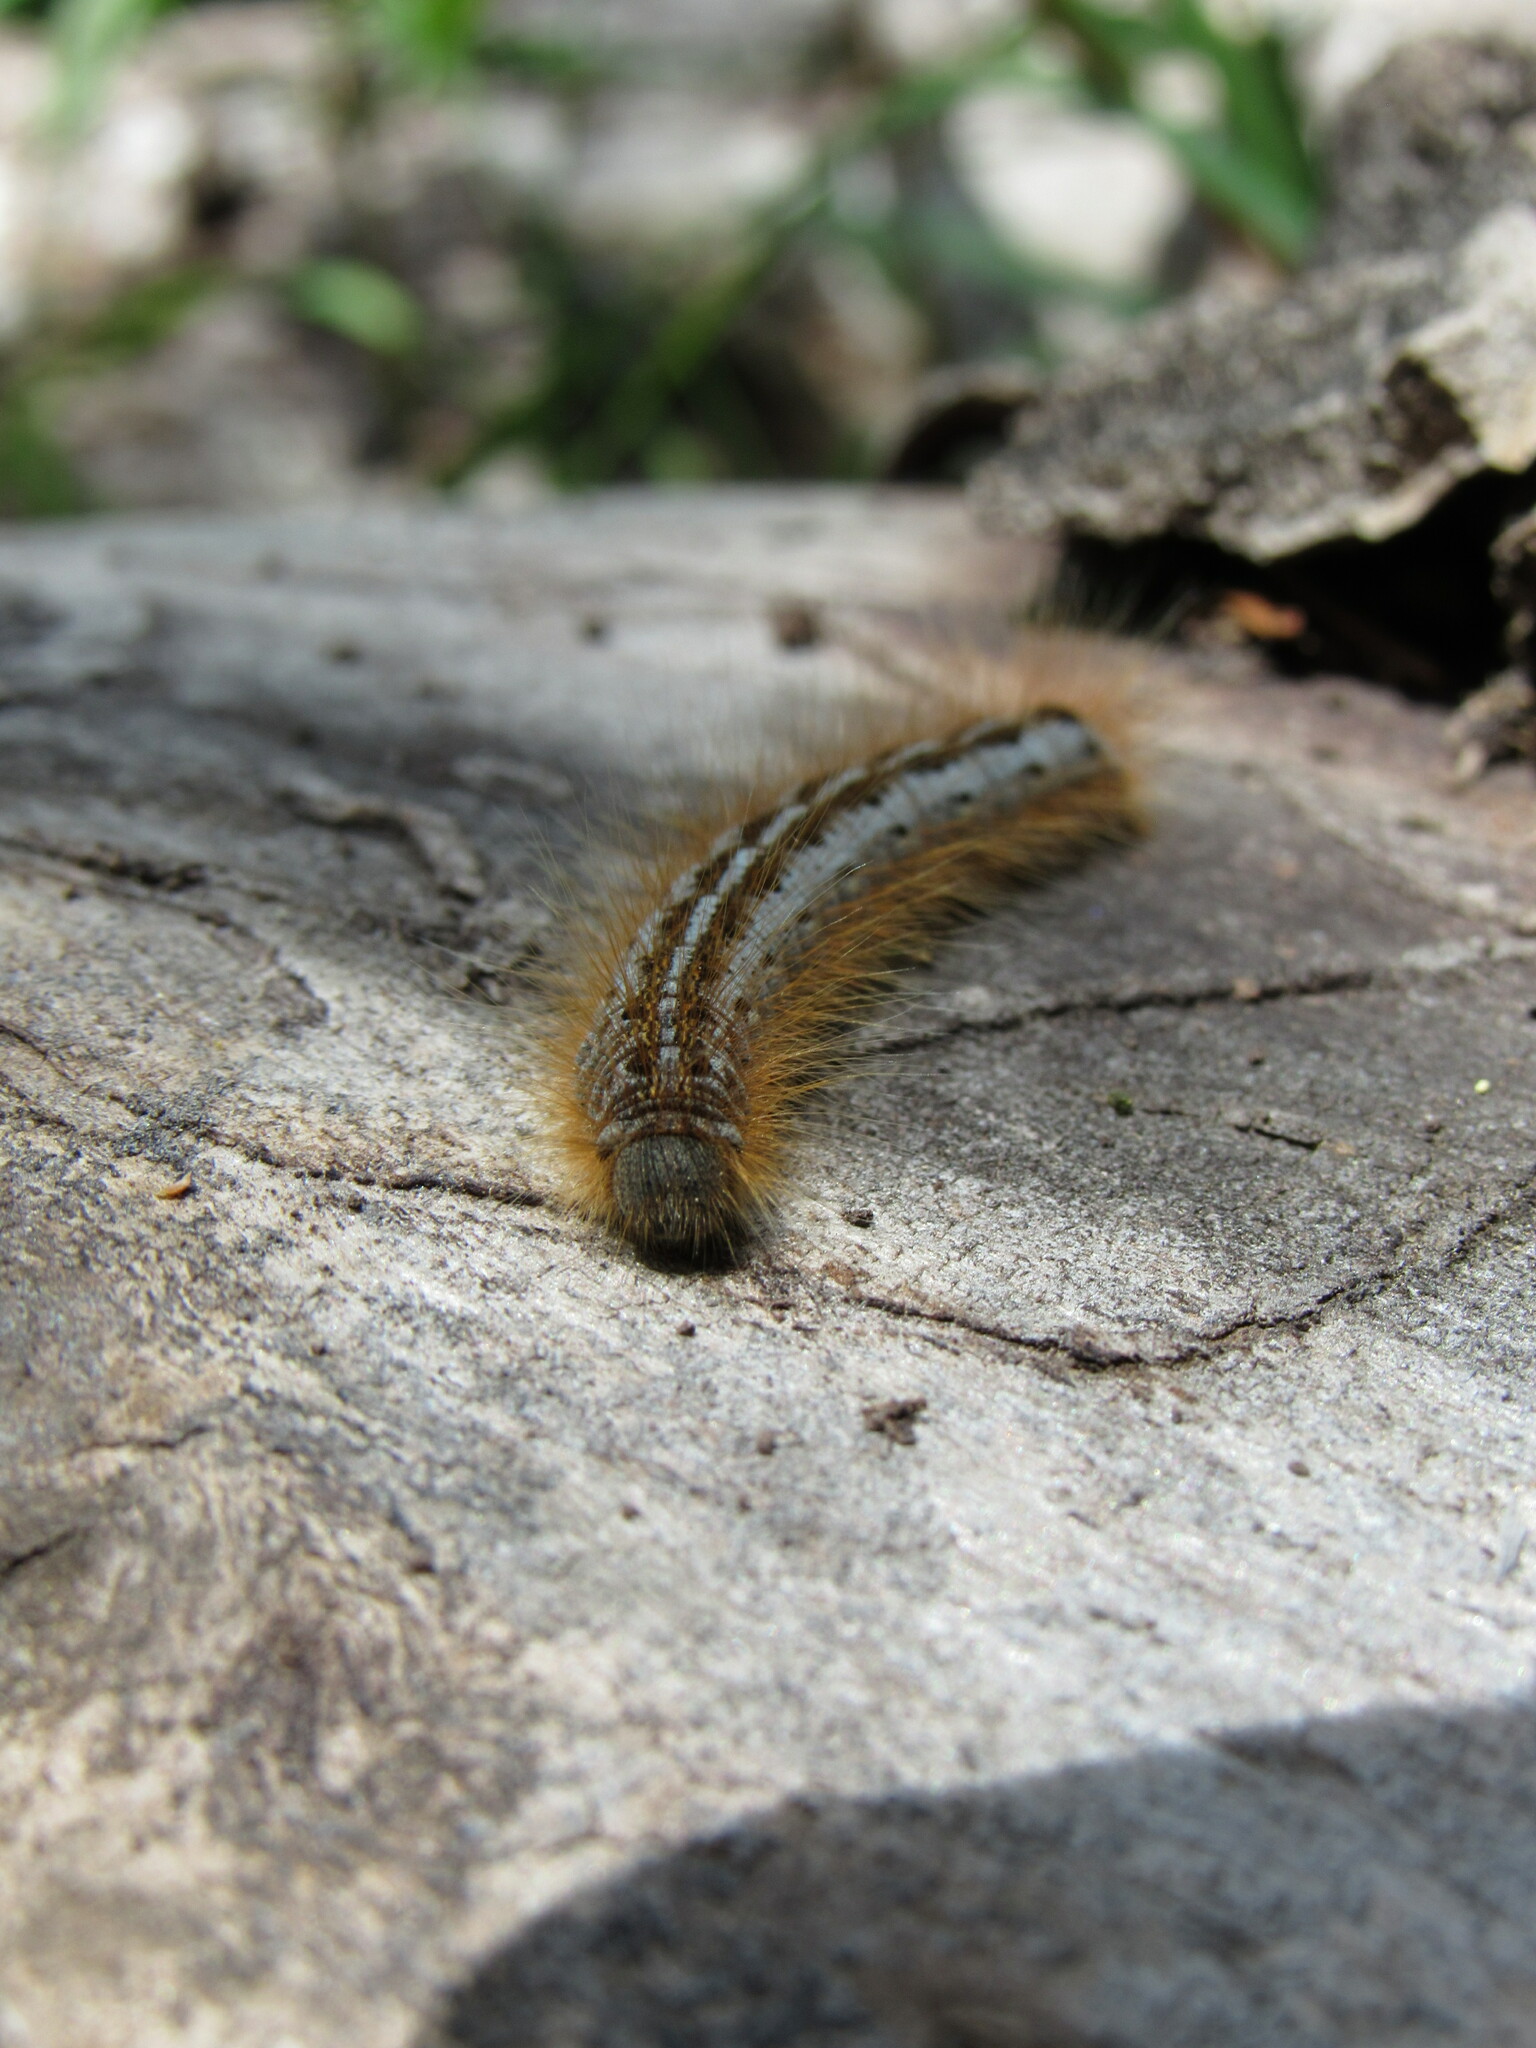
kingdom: Animalia
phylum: Arthropoda
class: Insecta
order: Lepidoptera
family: Lasiocampidae
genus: Malacosoma
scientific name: Malacosoma californica
